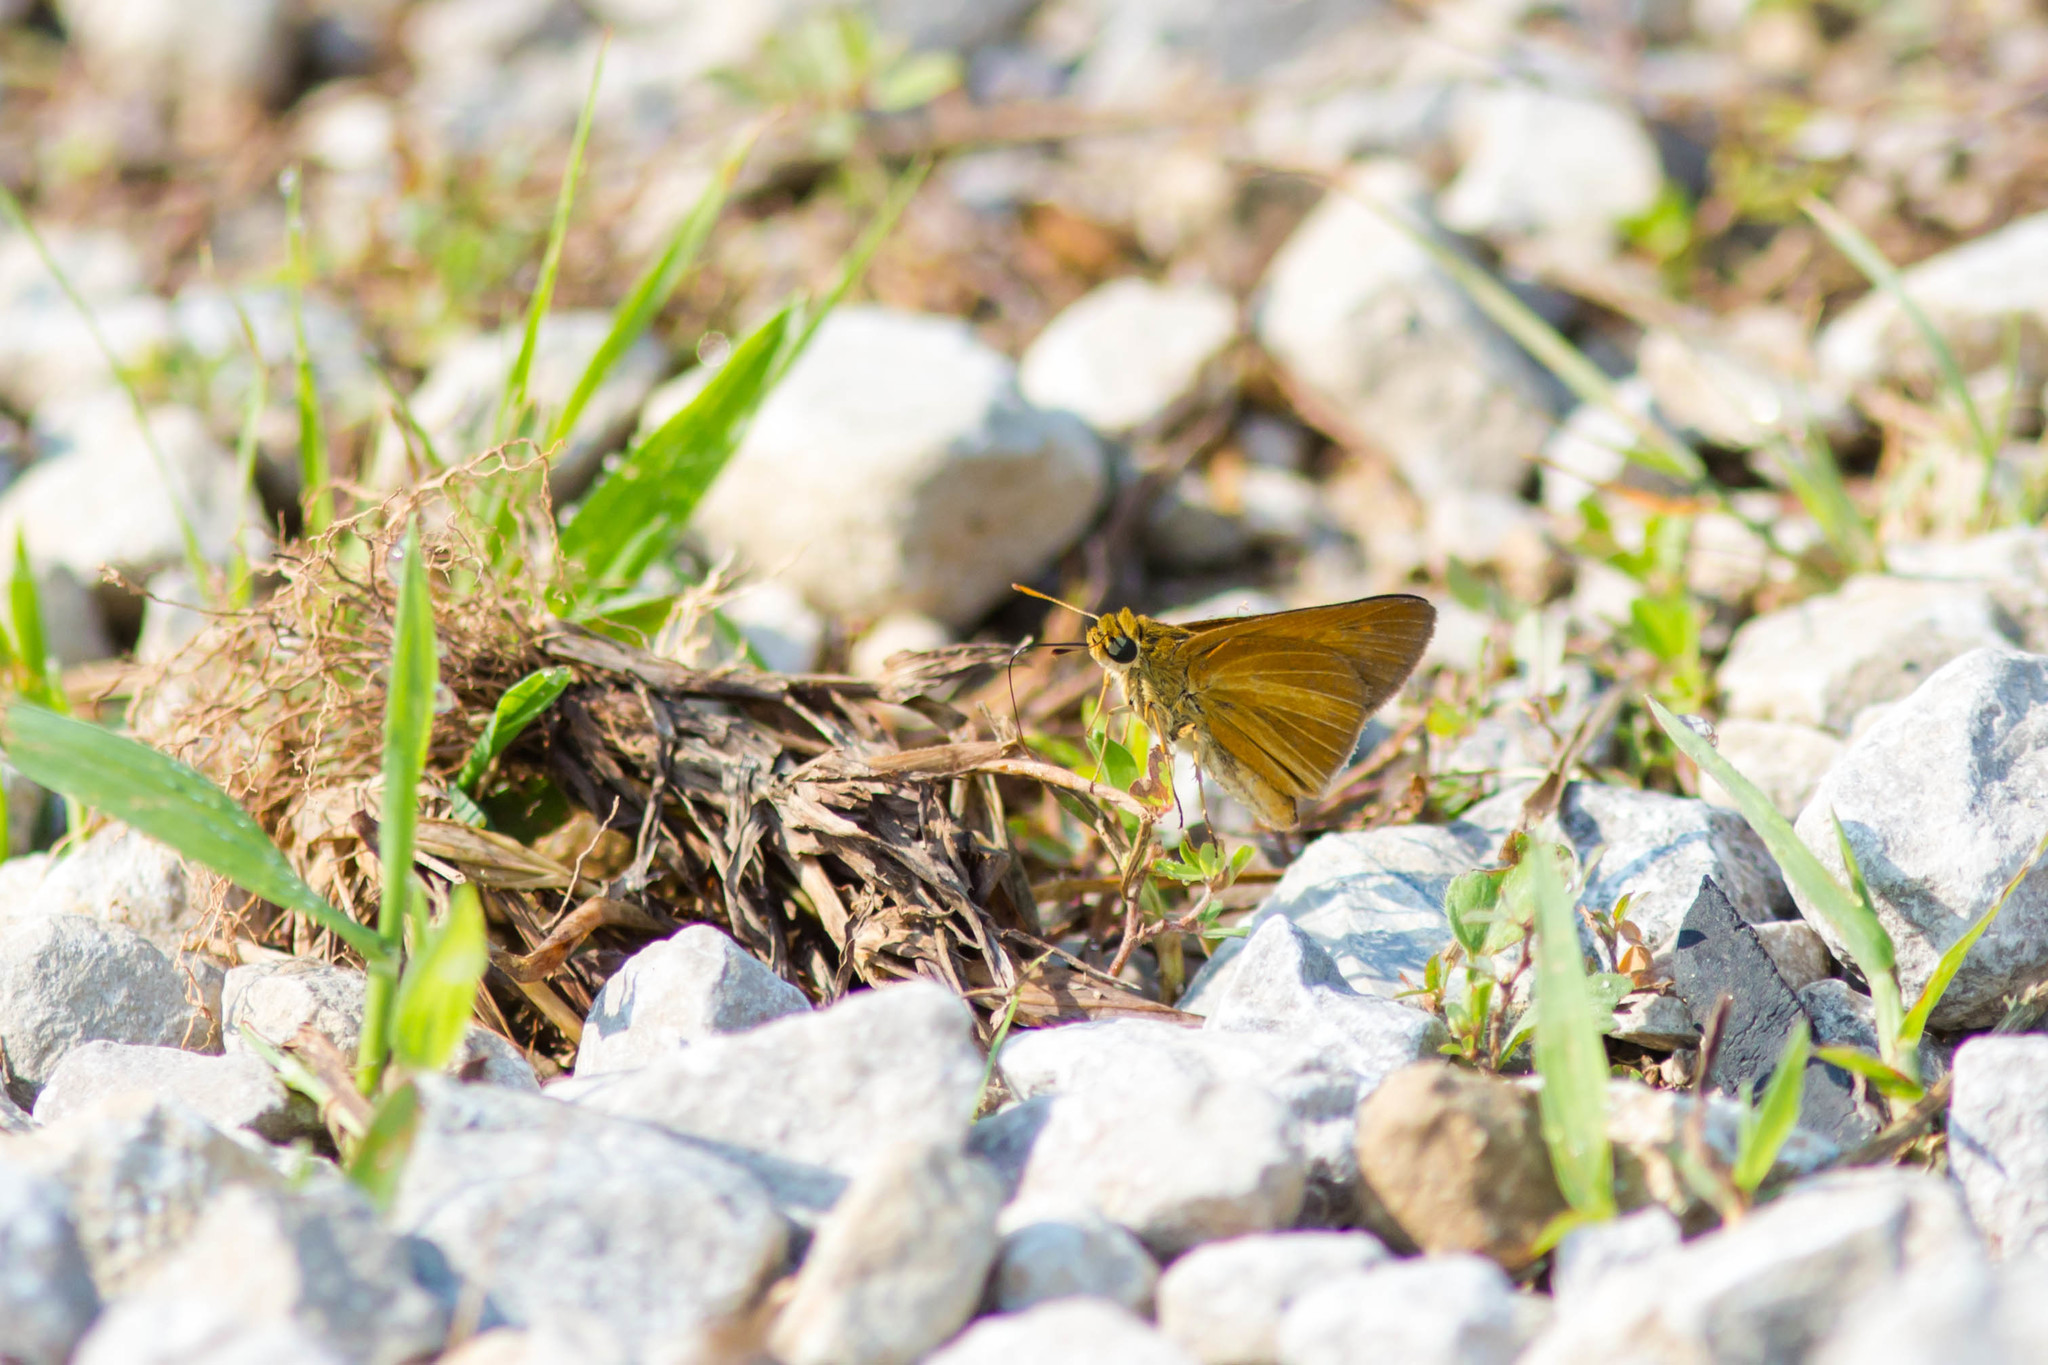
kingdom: Animalia
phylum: Arthropoda
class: Insecta
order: Lepidoptera
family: Hesperiidae
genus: Euphyes
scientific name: Euphyes dion
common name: Dion skipper
